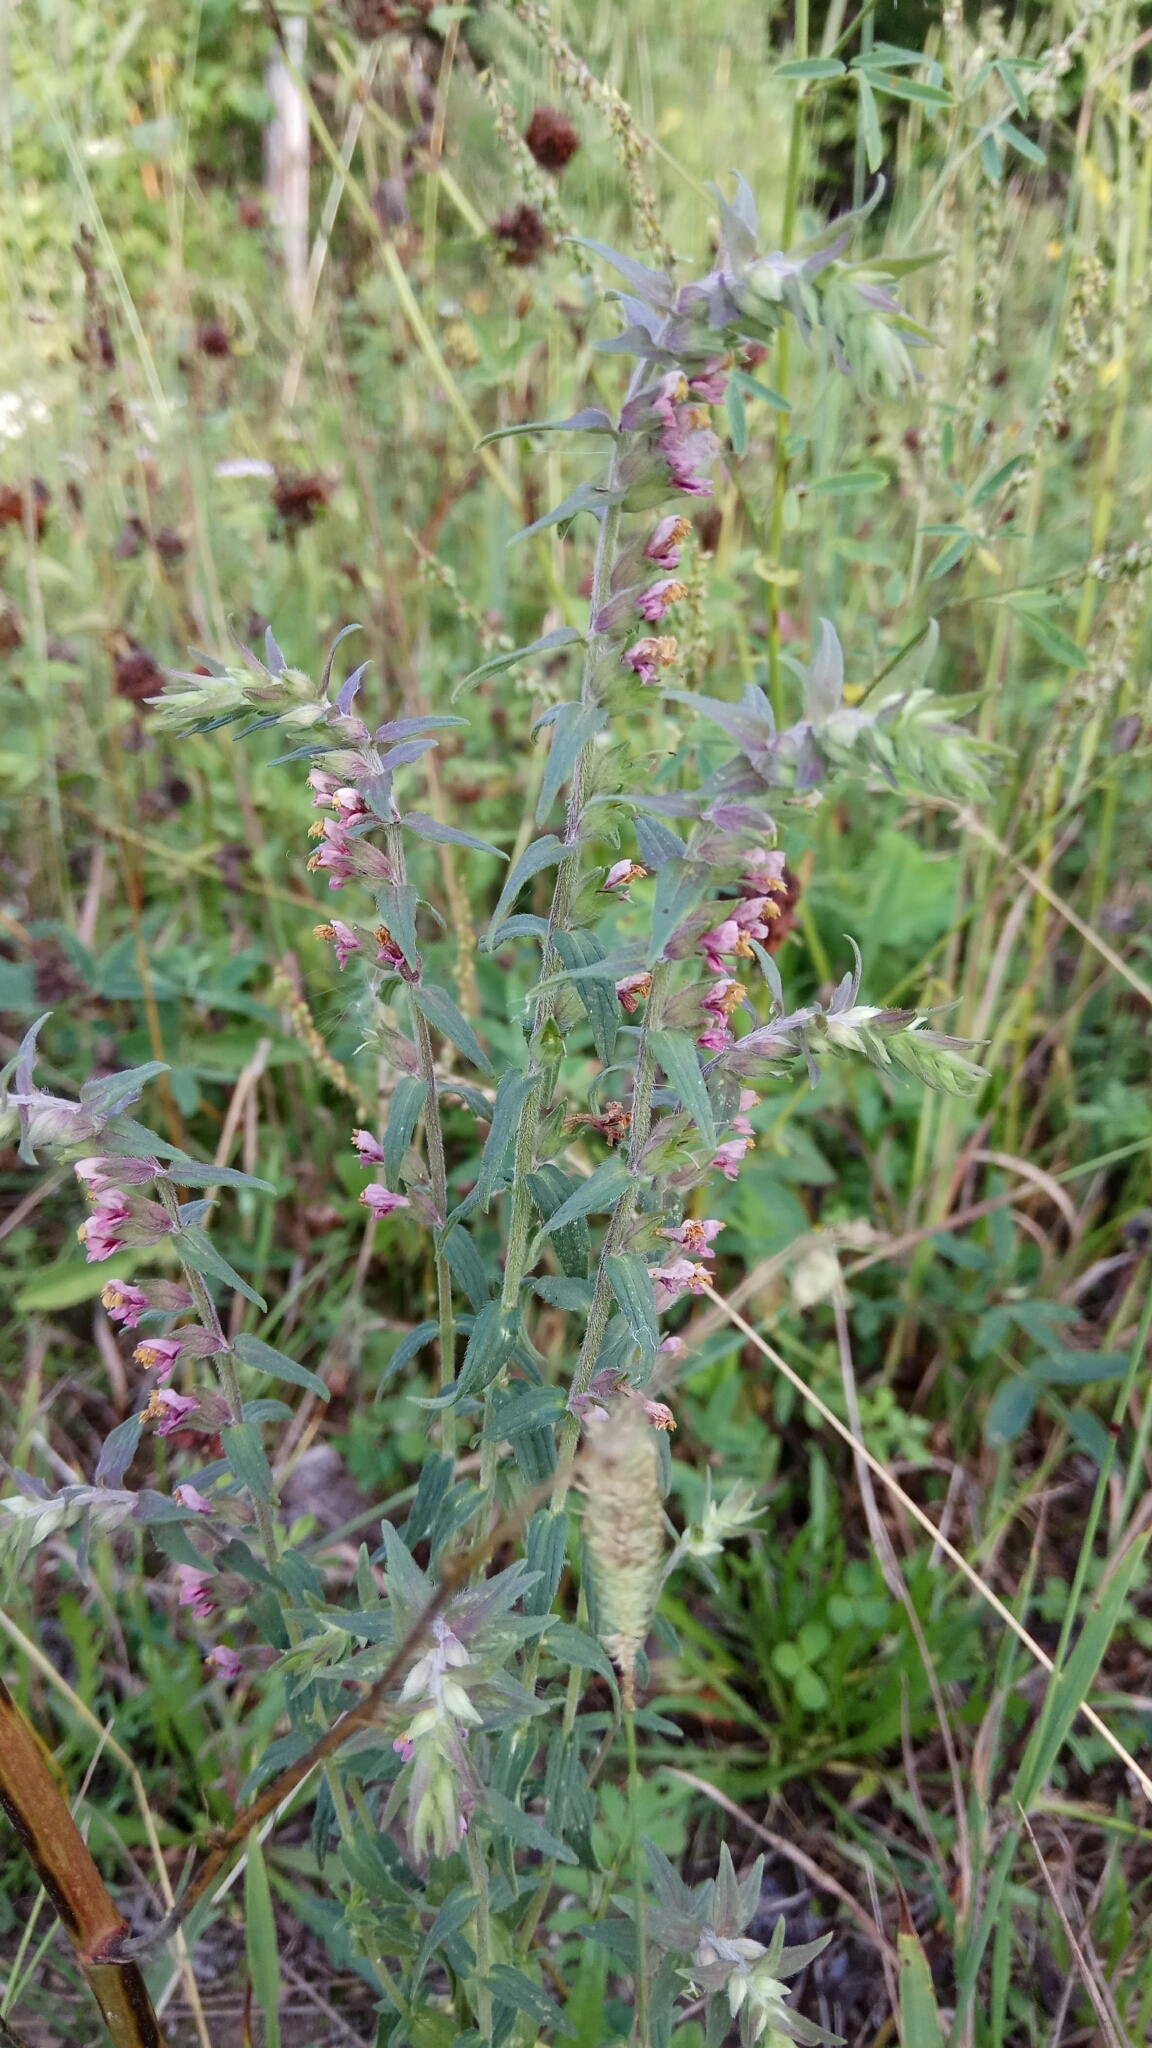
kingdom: Plantae
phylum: Tracheophyta
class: Magnoliopsida
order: Lamiales
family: Orobanchaceae
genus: Odontites
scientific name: Odontites vulgaris
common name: Broomrape
